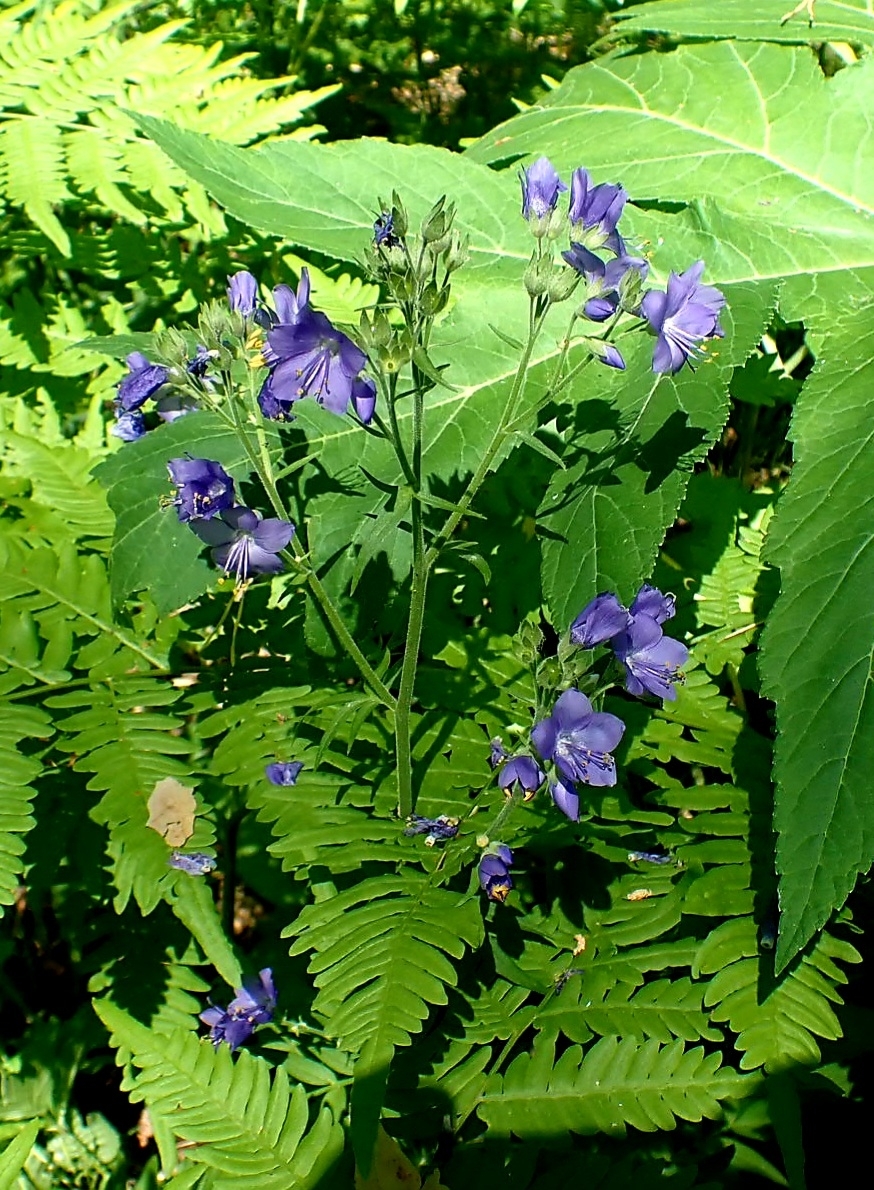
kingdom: Plantae
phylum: Tracheophyta
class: Magnoliopsida
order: Ericales
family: Polemoniaceae
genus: Polemonium
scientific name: Polemonium caeruleum
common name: Jacob's-ladder
